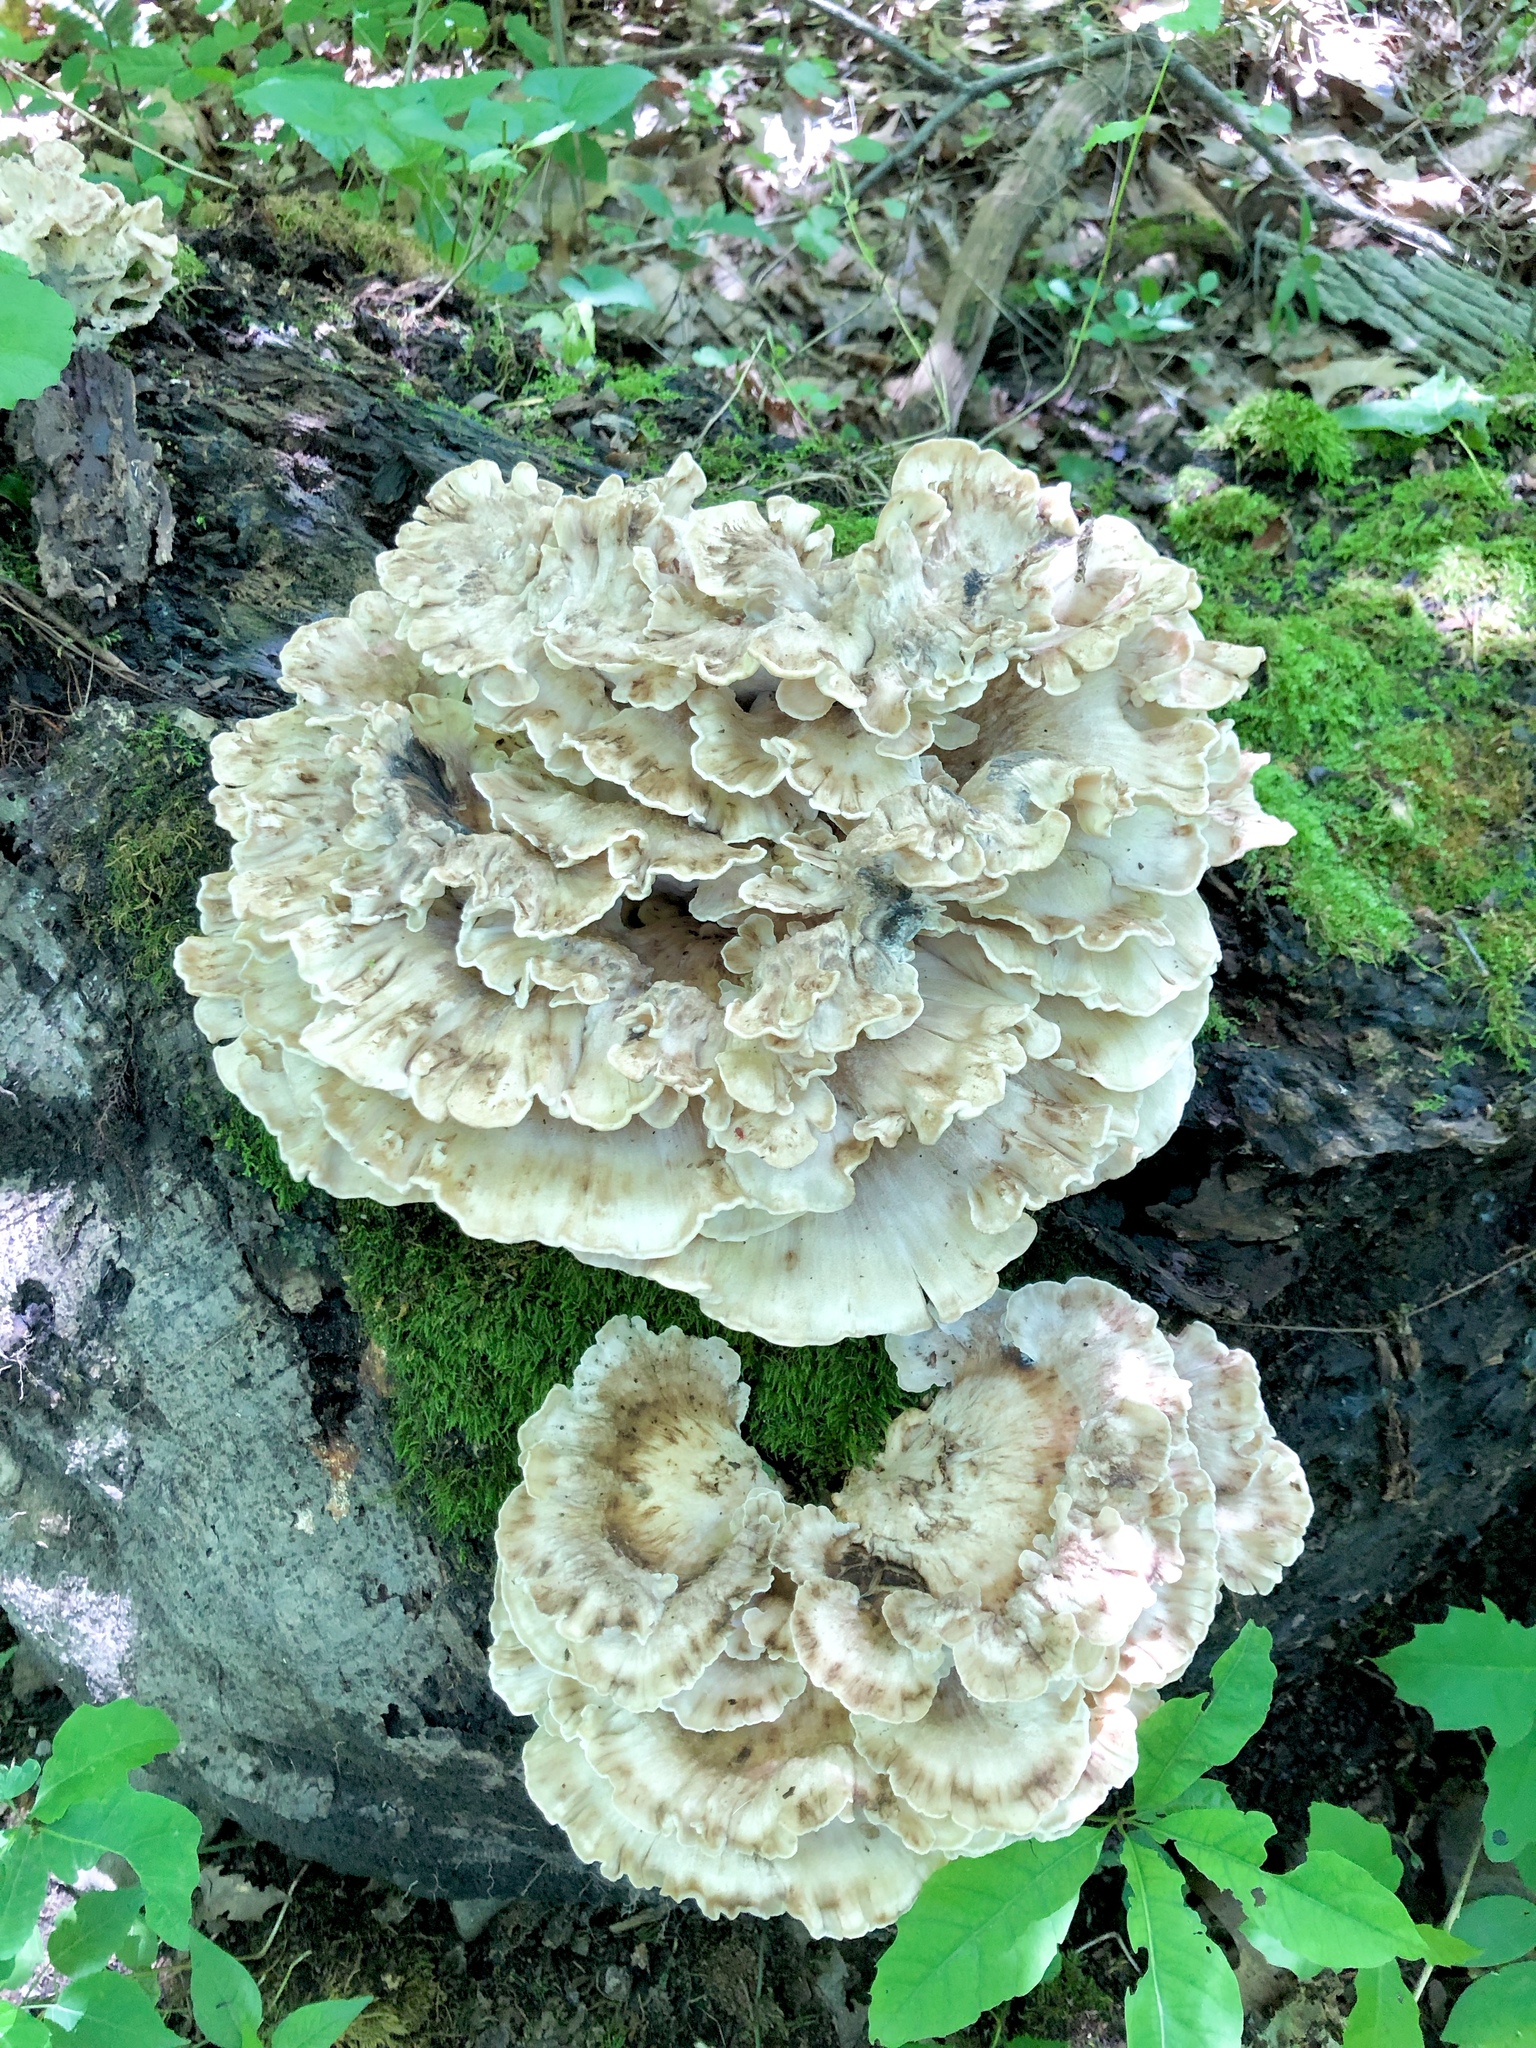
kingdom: Fungi
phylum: Basidiomycota
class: Agaricomycetes
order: Polyporales
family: Meripilaceae
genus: Meripilus
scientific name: Meripilus sumstinei
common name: Black-staining polypore
